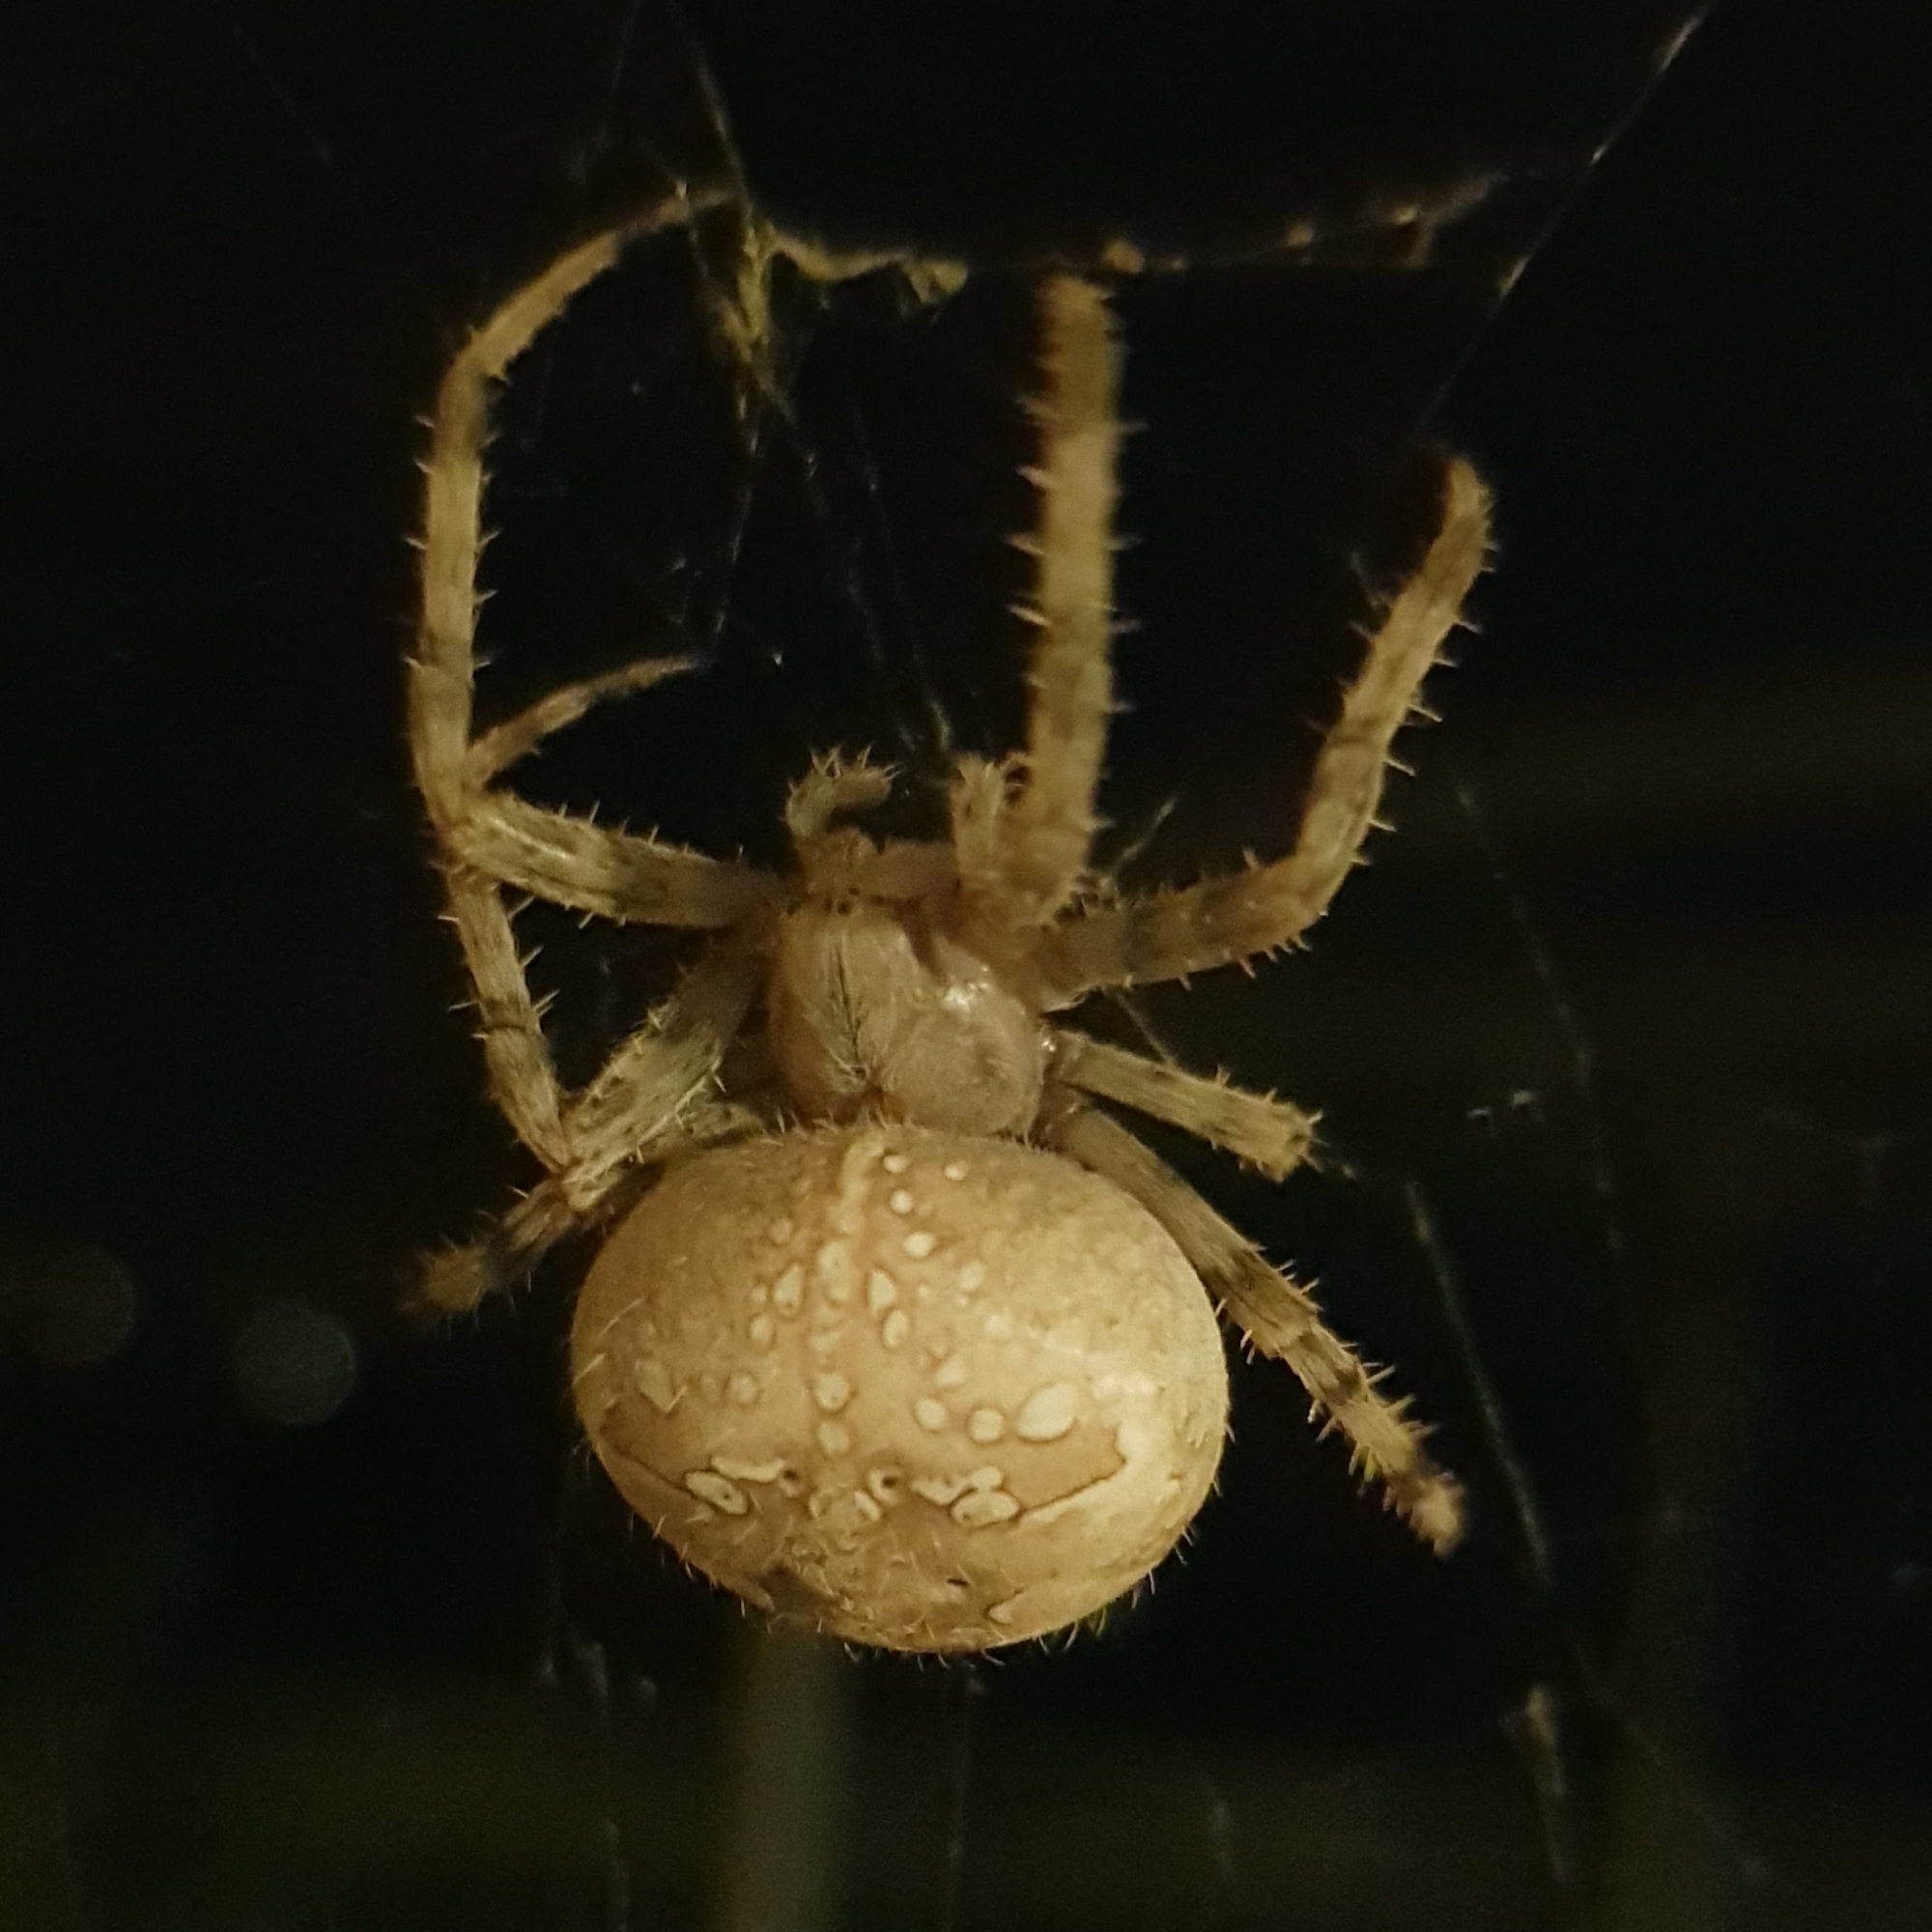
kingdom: Animalia
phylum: Arthropoda
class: Arachnida
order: Araneae
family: Araneidae
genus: Araneus
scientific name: Araneus diadematus
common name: Cross orbweaver
